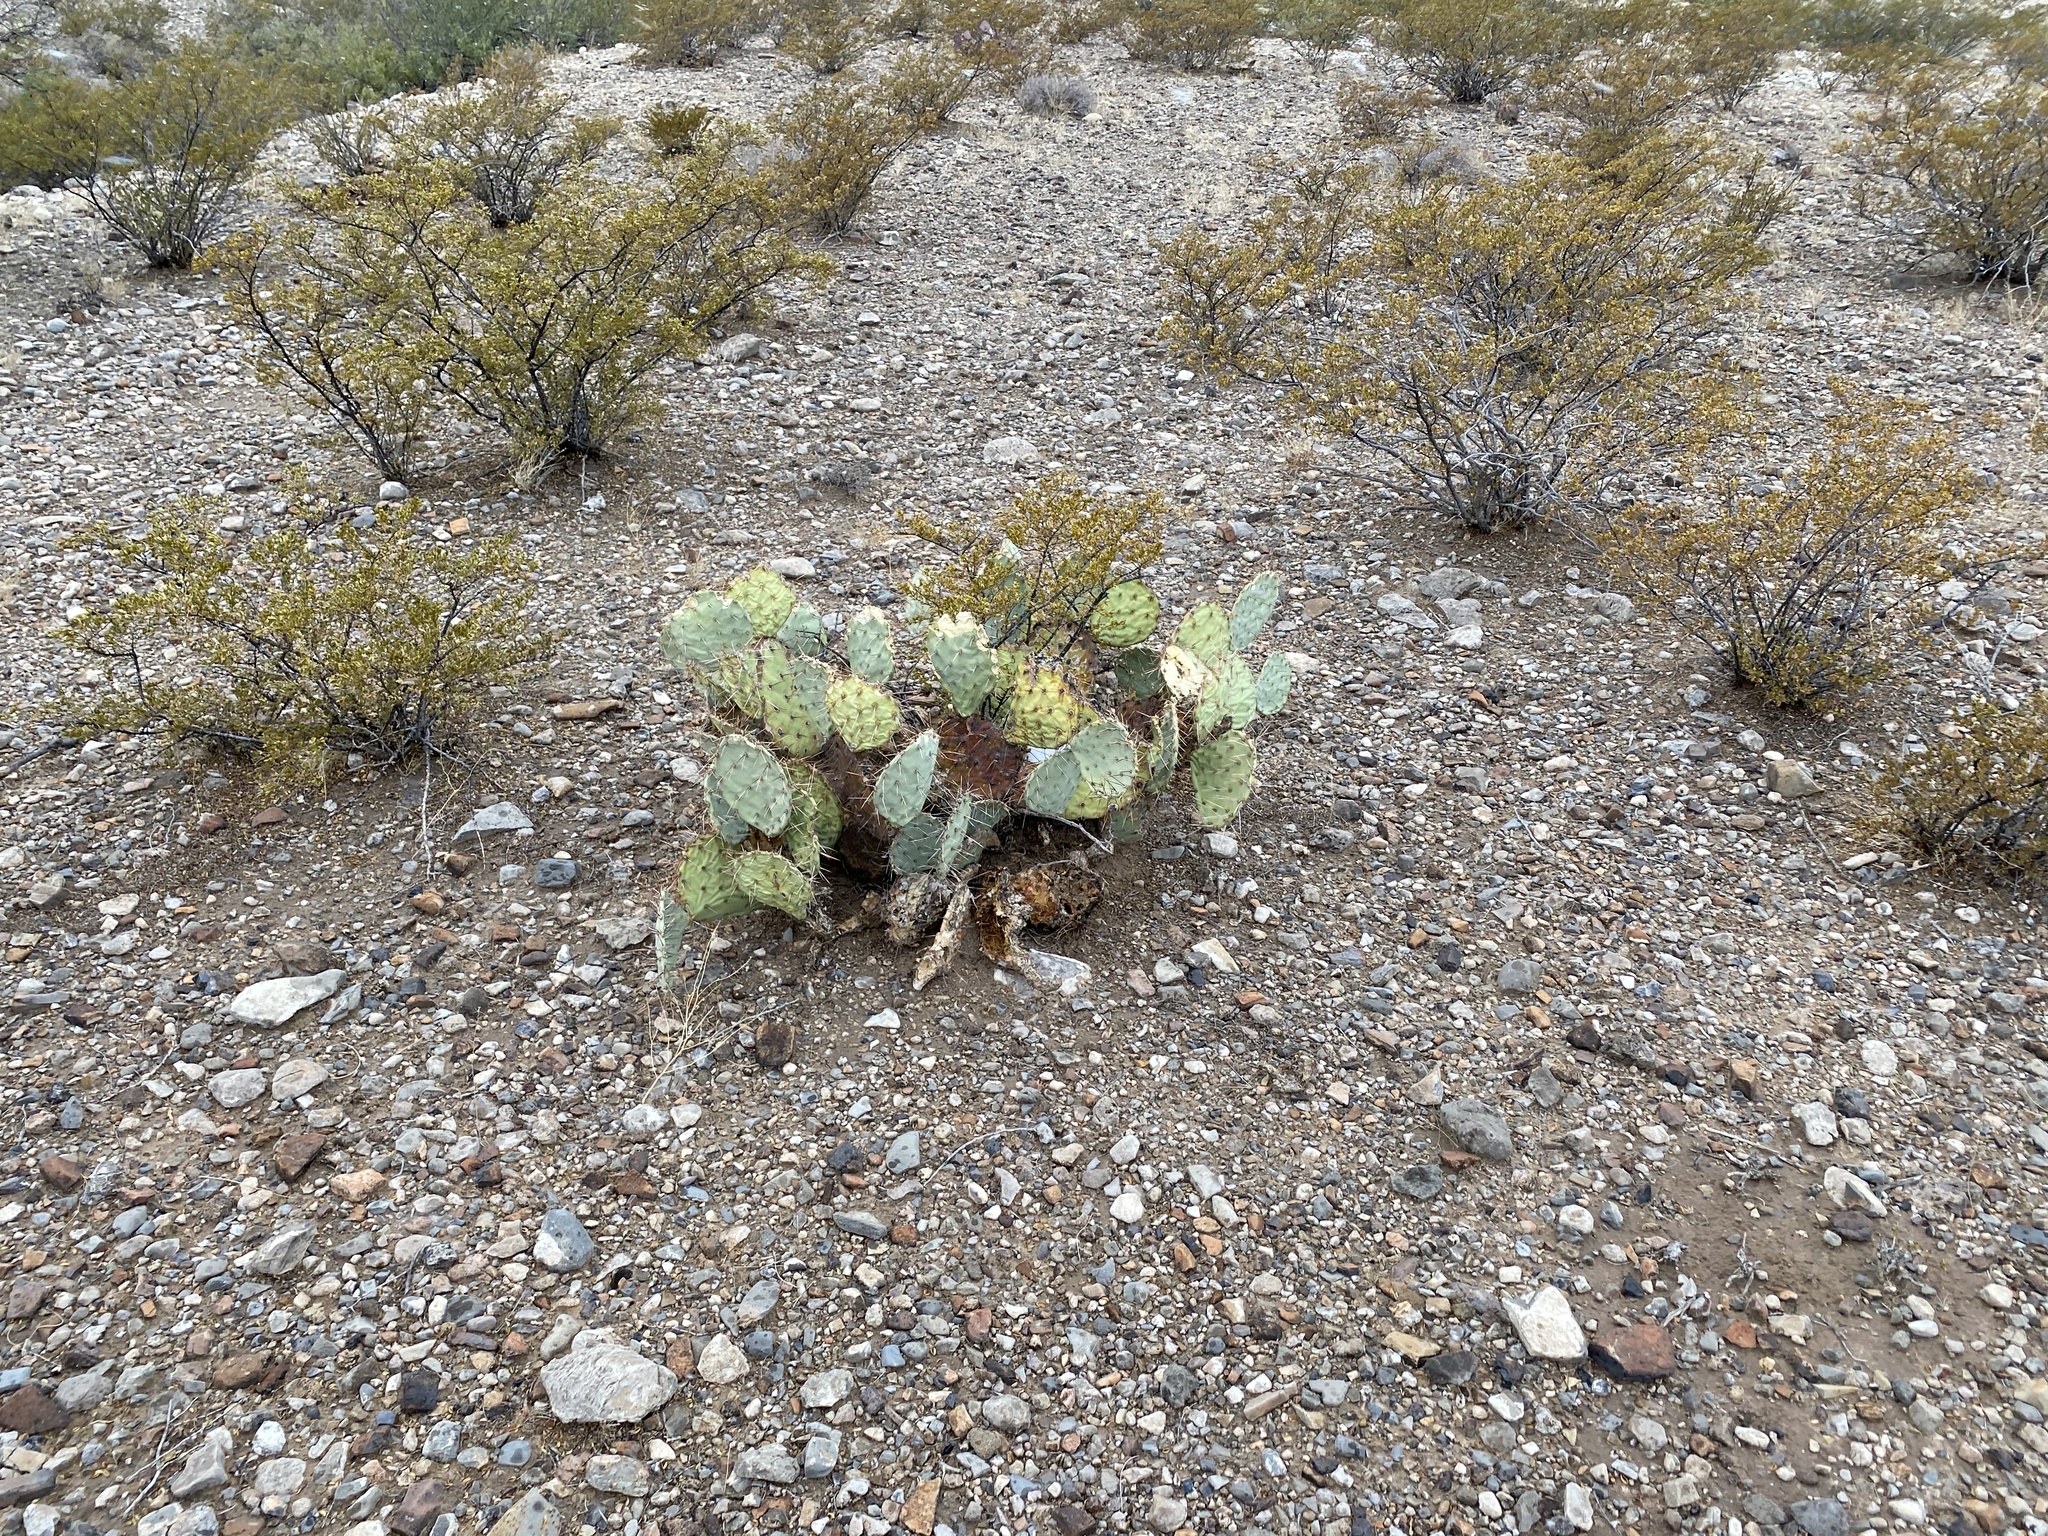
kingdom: Plantae
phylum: Tracheophyta
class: Magnoliopsida
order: Caryophyllales
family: Cactaceae
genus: Opuntia
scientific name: Opuntia engelmannii
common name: Cactus-apple
